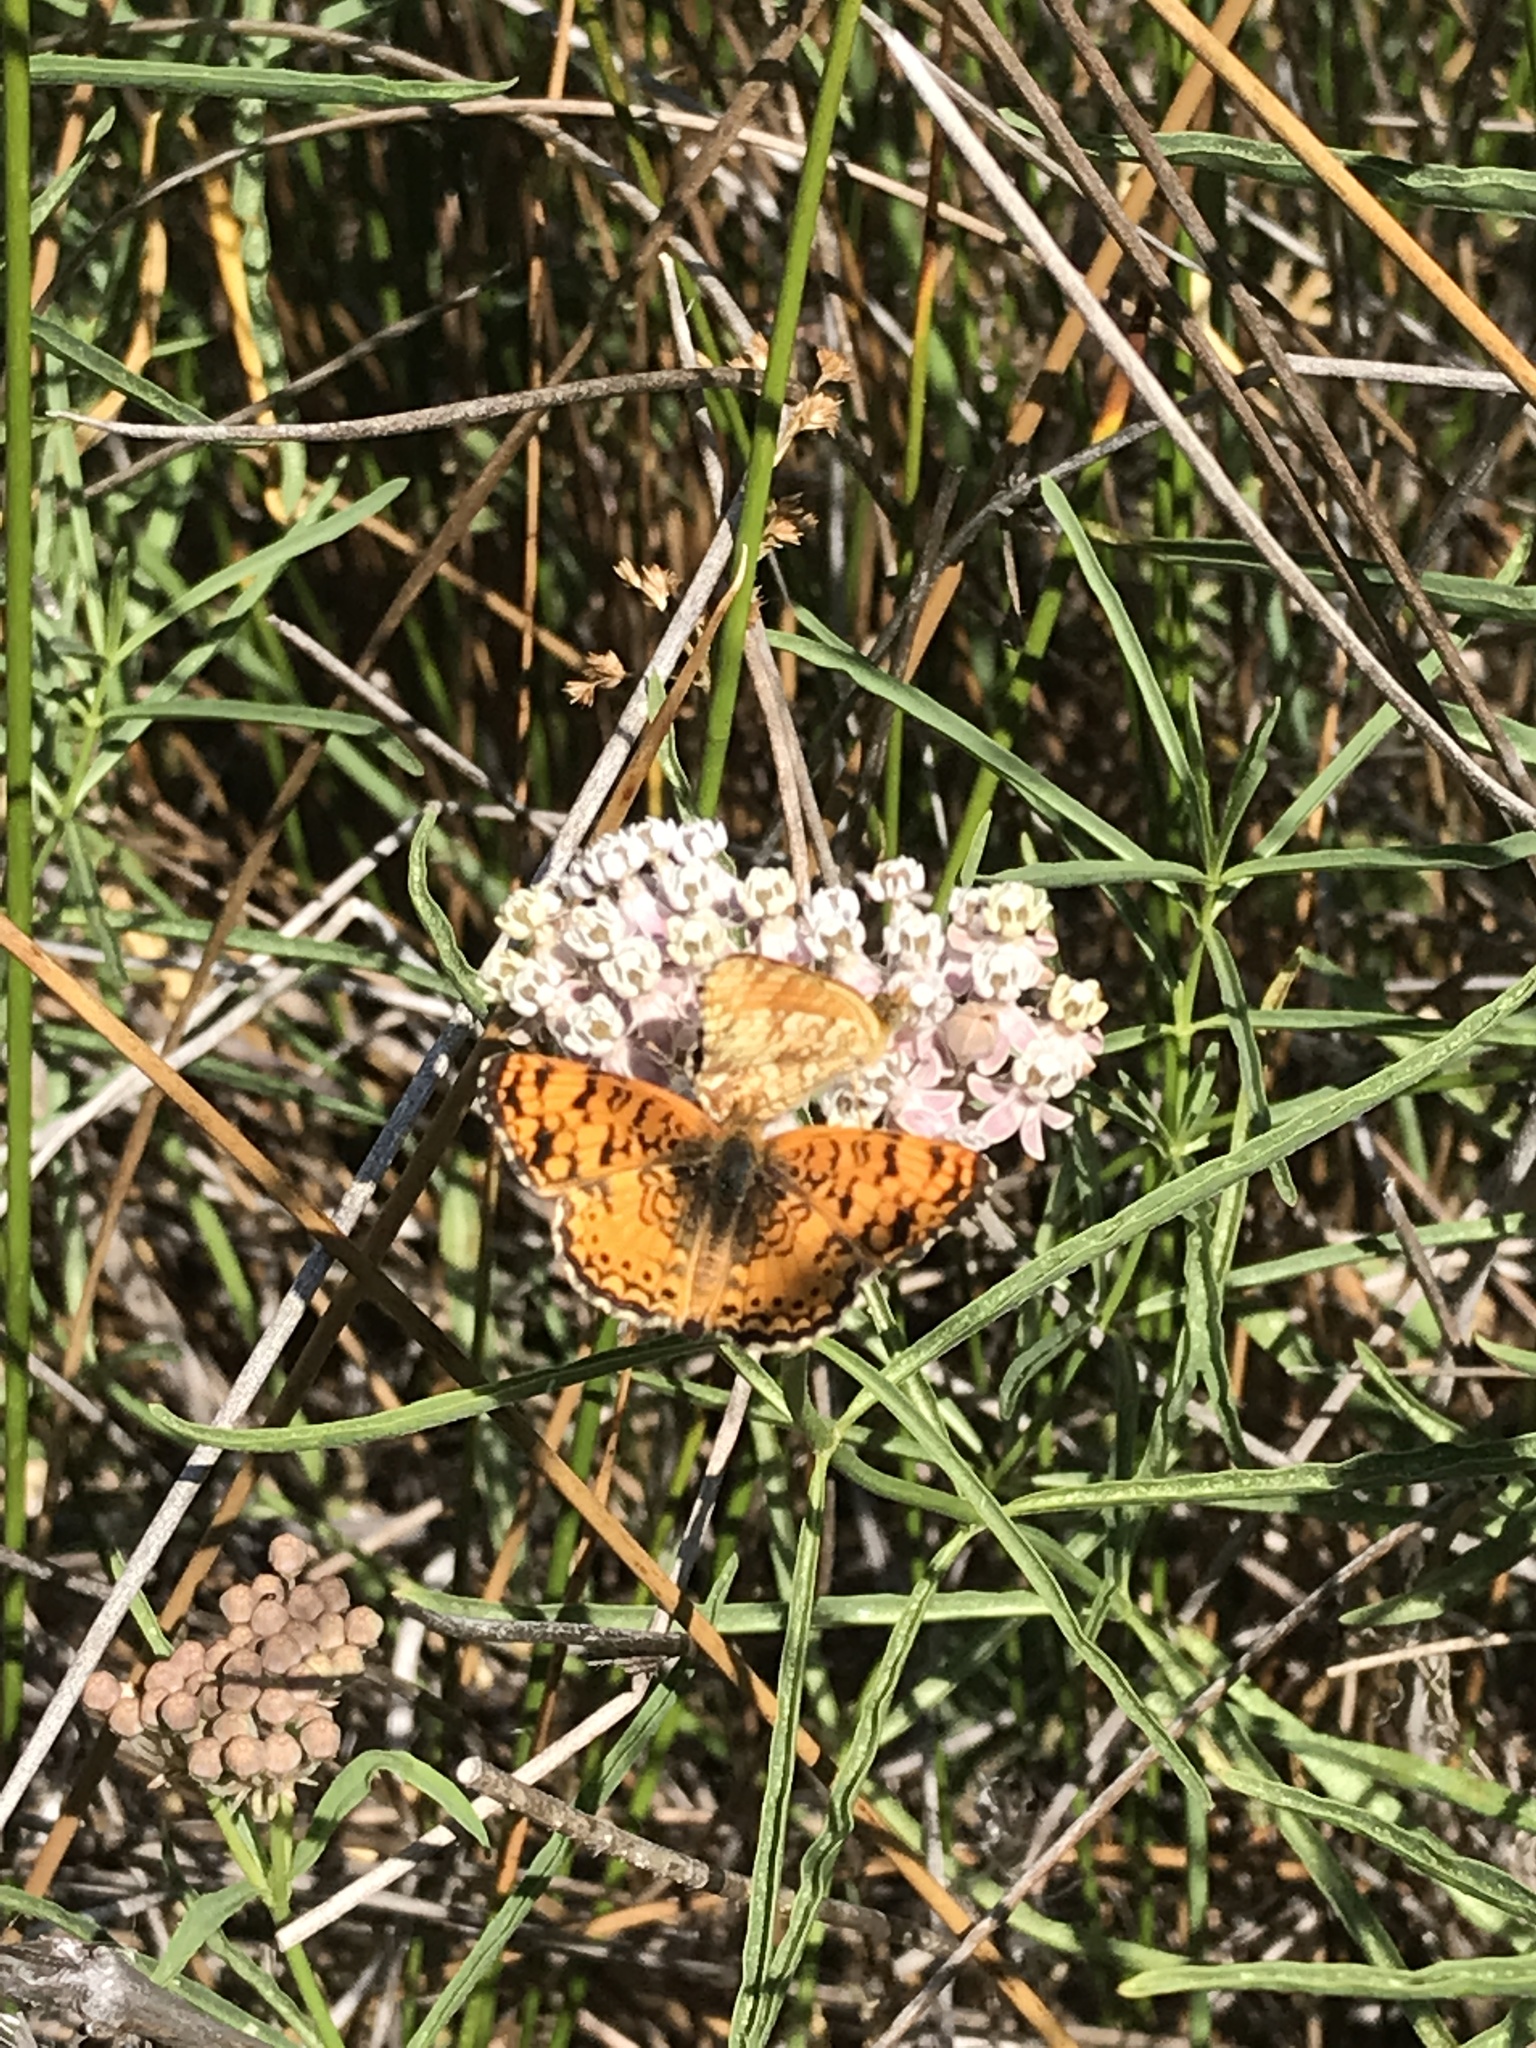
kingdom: Animalia
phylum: Arthropoda
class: Insecta
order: Lepidoptera
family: Nymphalidae
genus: Eresia
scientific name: Eresia aveyrona
